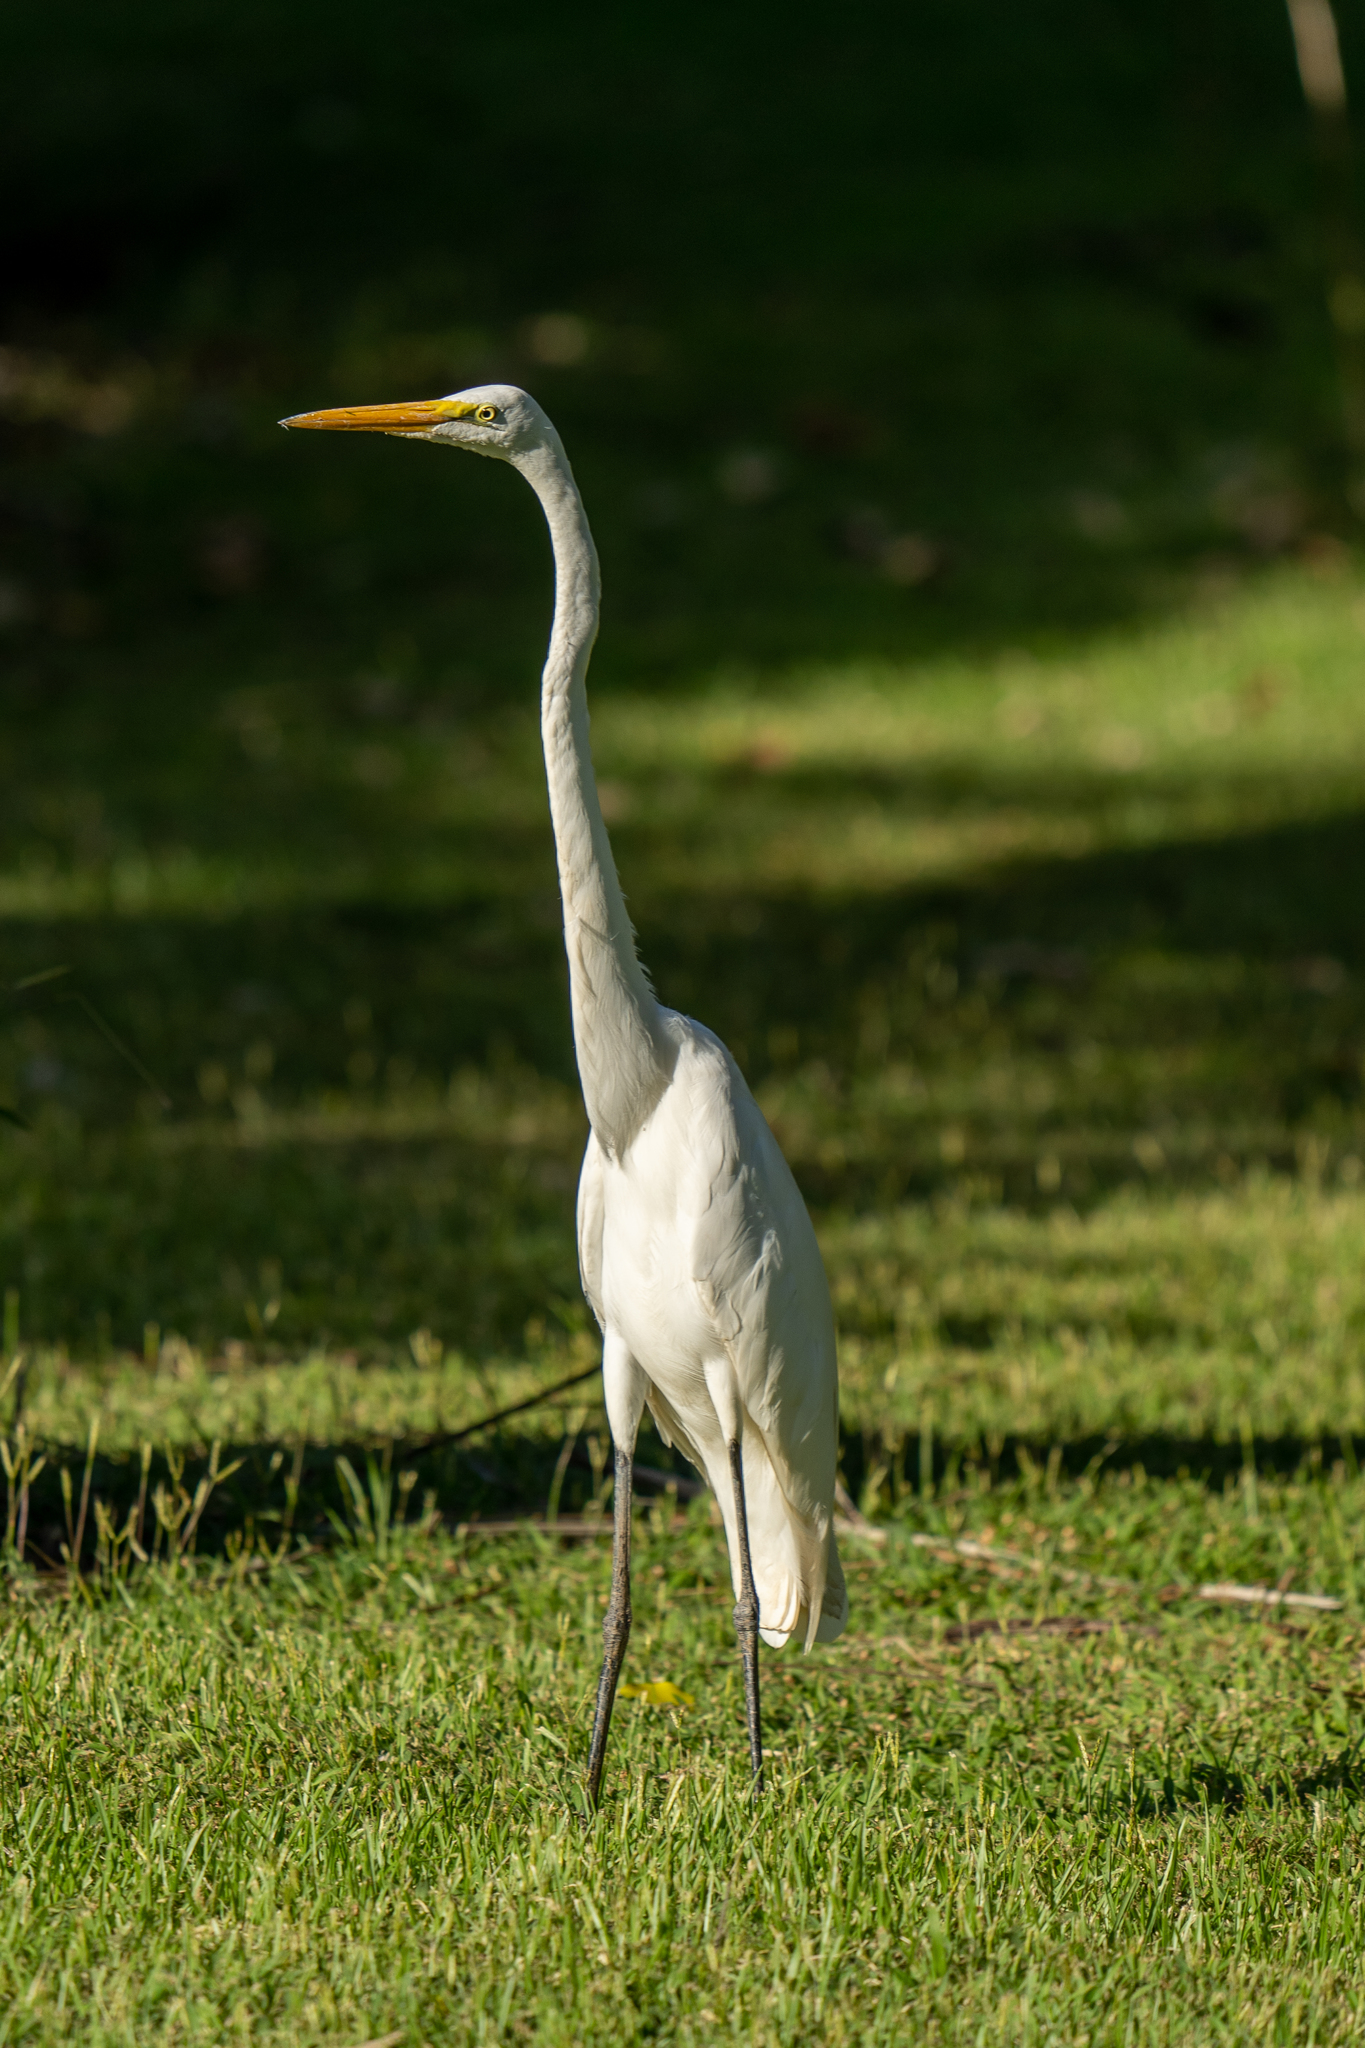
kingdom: Animalia
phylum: Chordata
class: Aves
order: Pelecaniformes
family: Ardeidae
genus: Ardea
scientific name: Ardea alba
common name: Great egret
